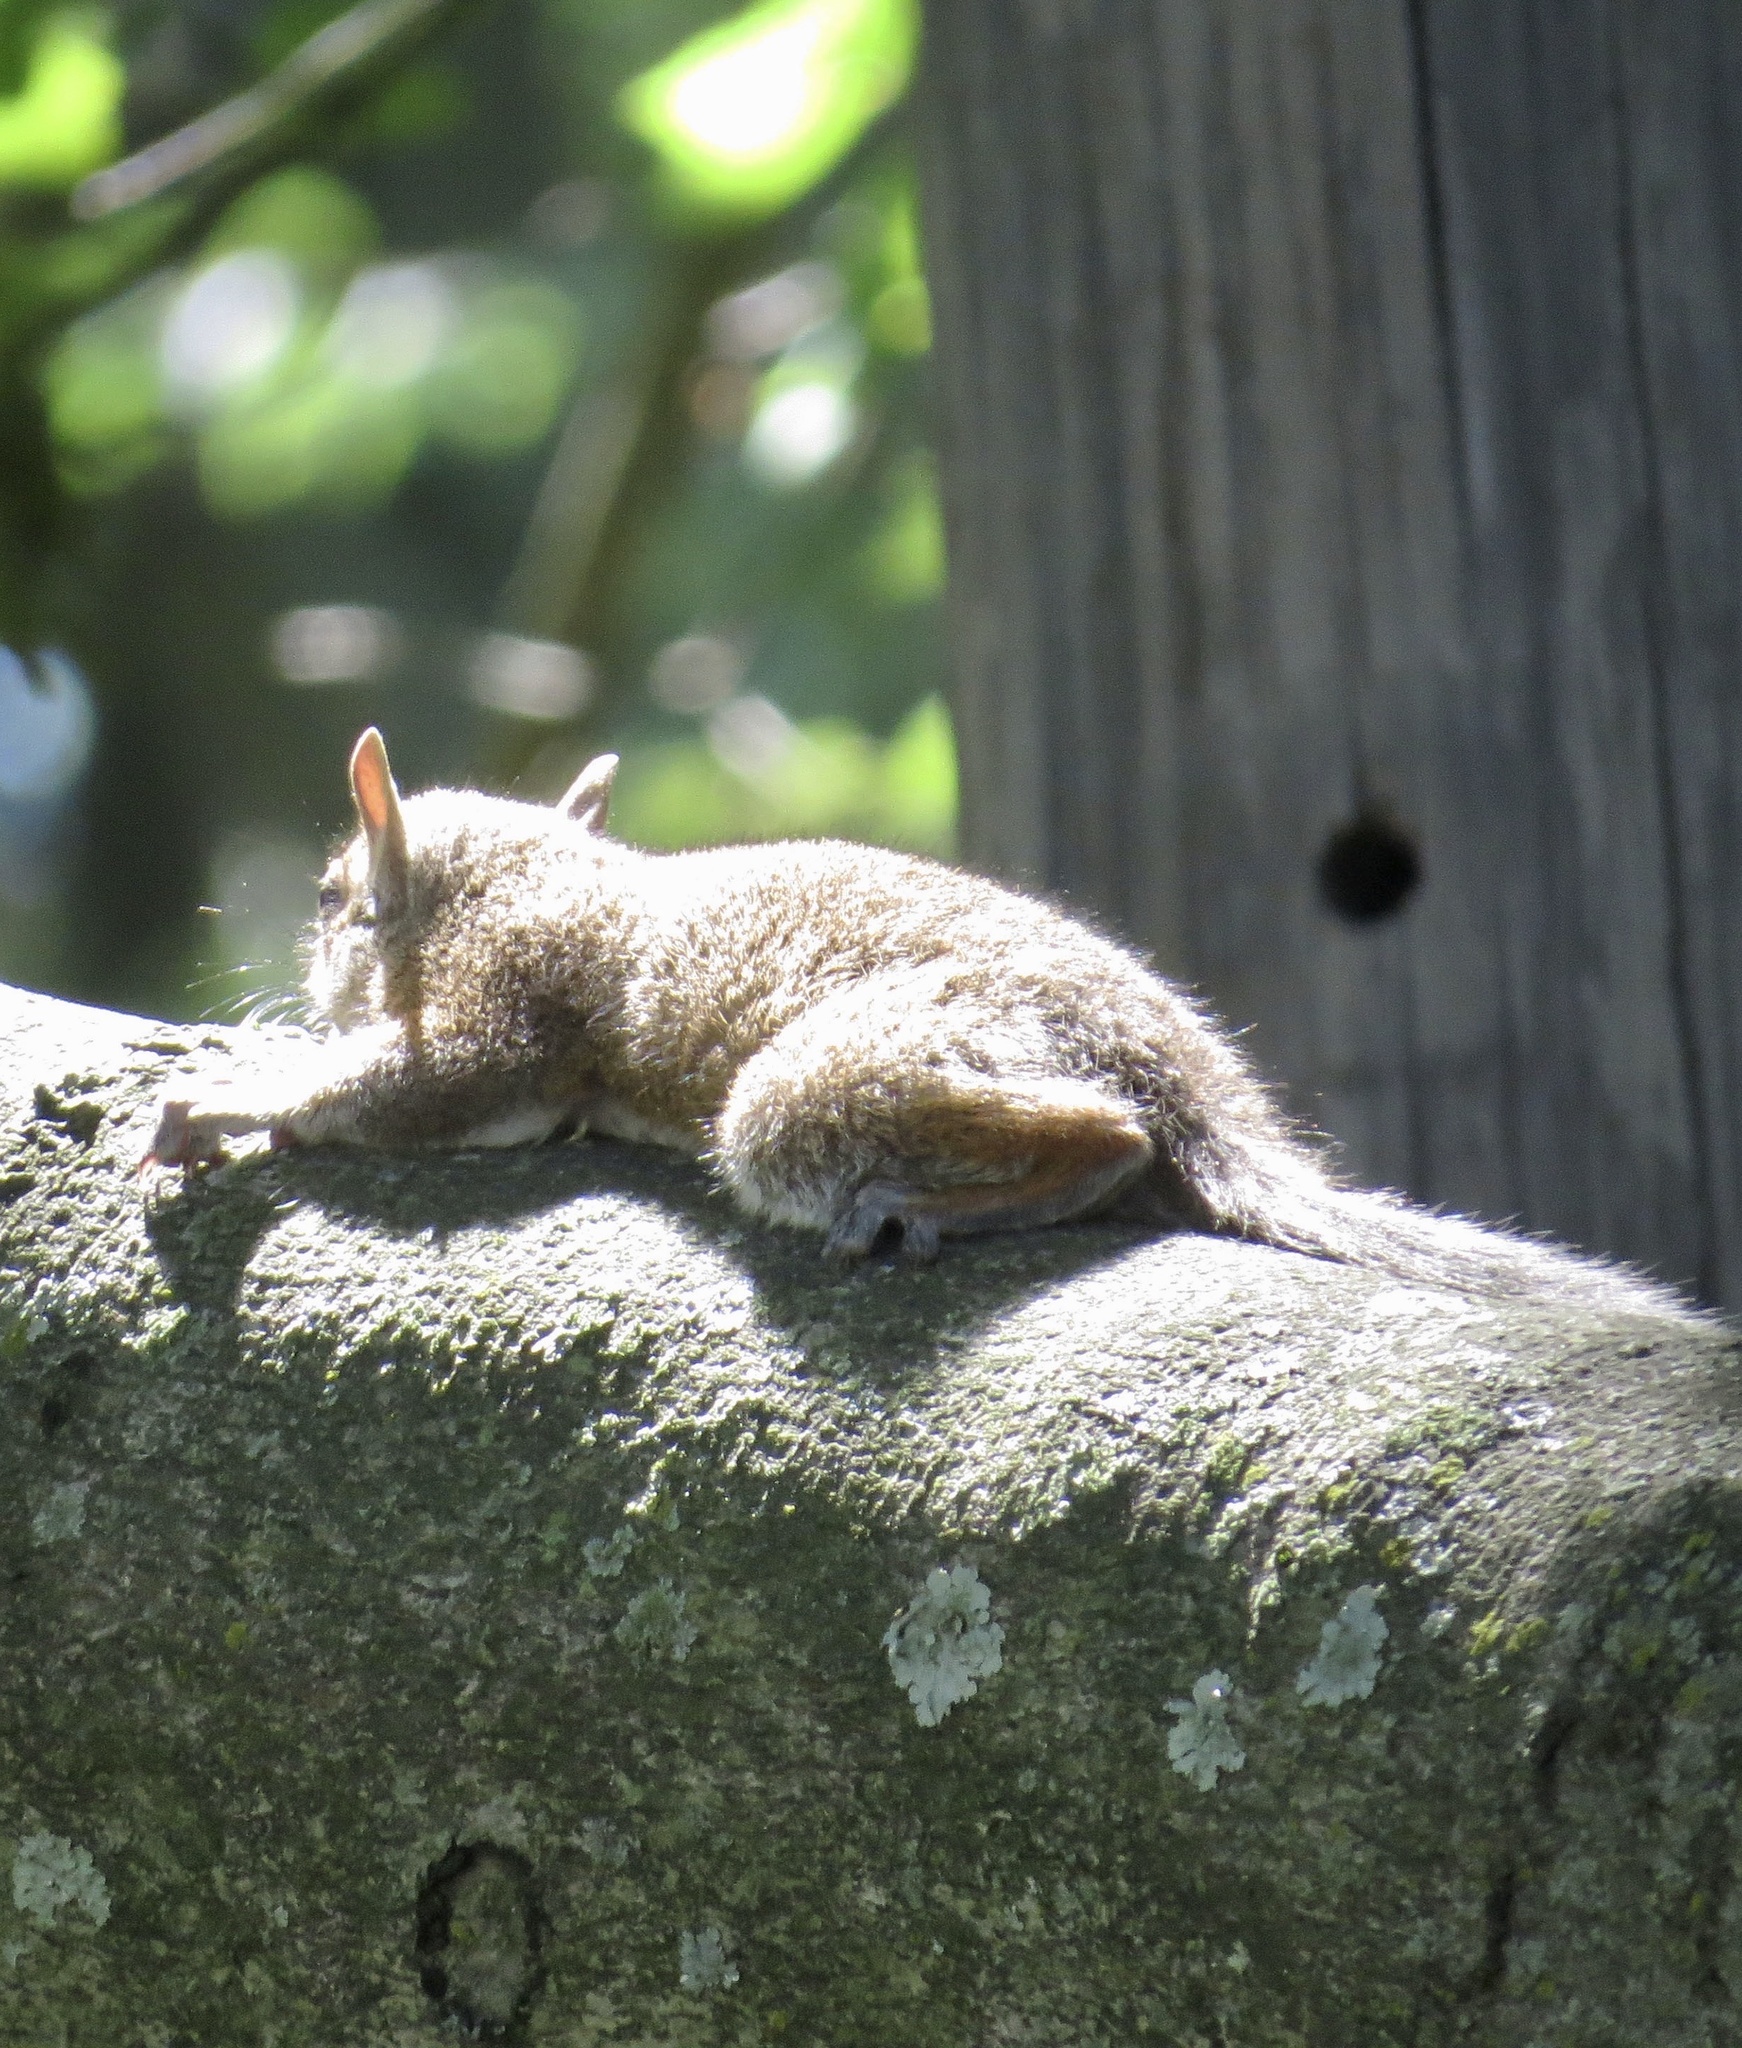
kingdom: Animalia
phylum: Chordata
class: Mammalia
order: Rodentia
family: Sciuridae
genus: Sciurus
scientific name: Sciurus carolinensis
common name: Eastern gray squirrel
